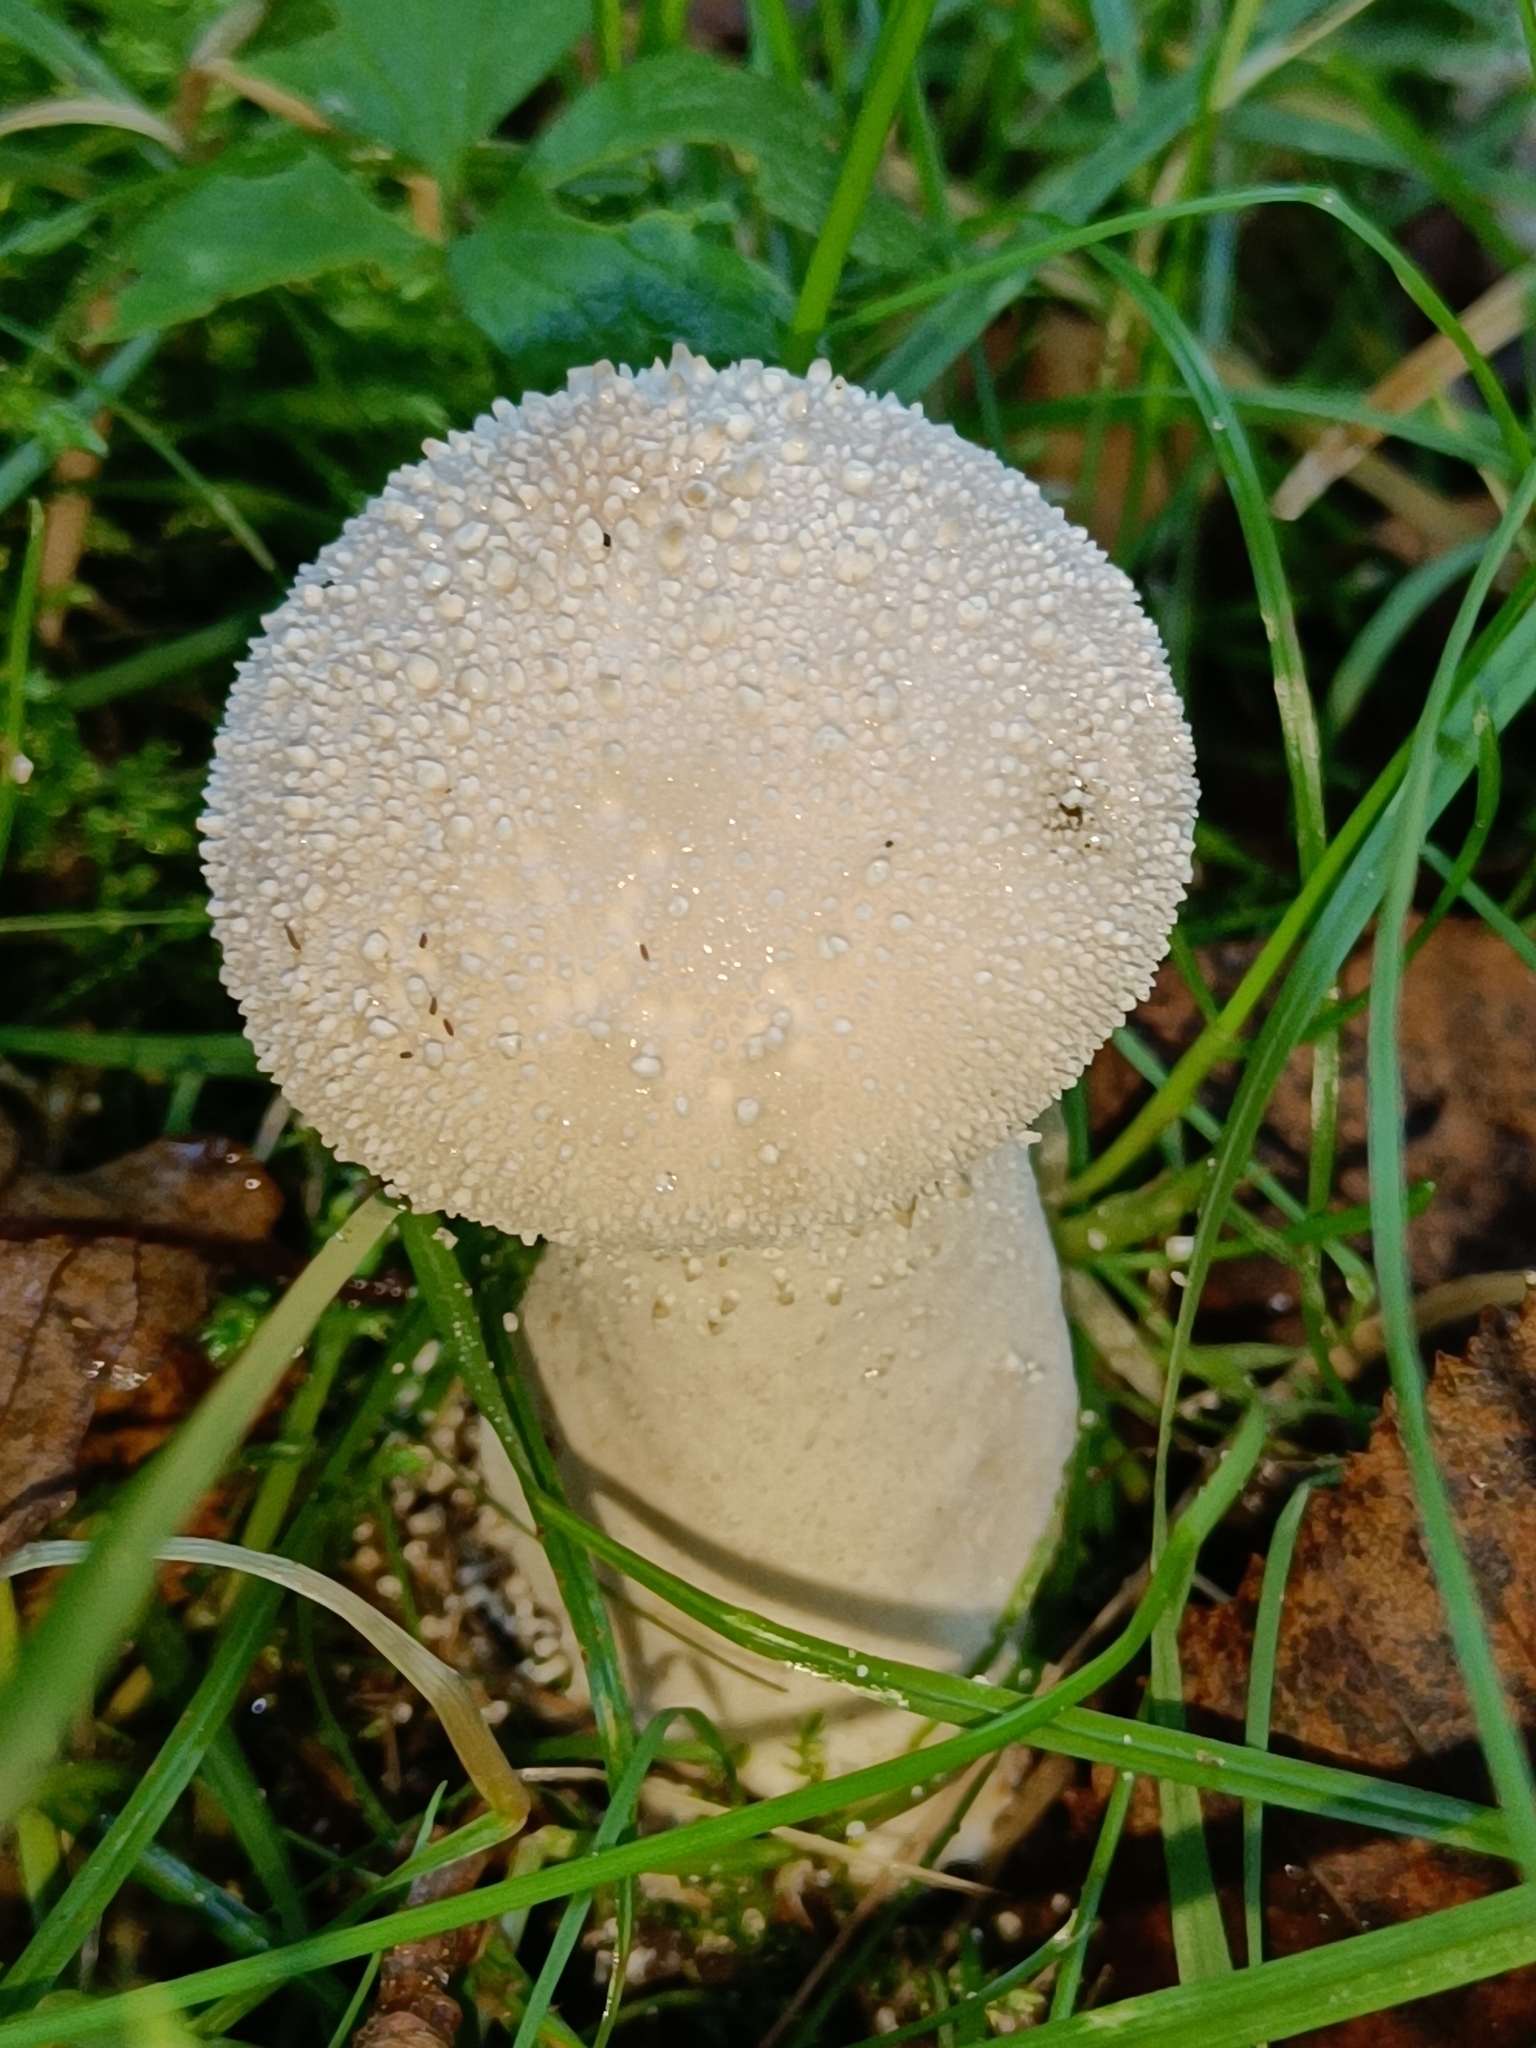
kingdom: Fungi
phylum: Basidiomycota
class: Agaricomycetes
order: Agaricales
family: Lycoperdaceae
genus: Lycoperdon
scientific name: Lycoperdon perlatum
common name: Common puffball
